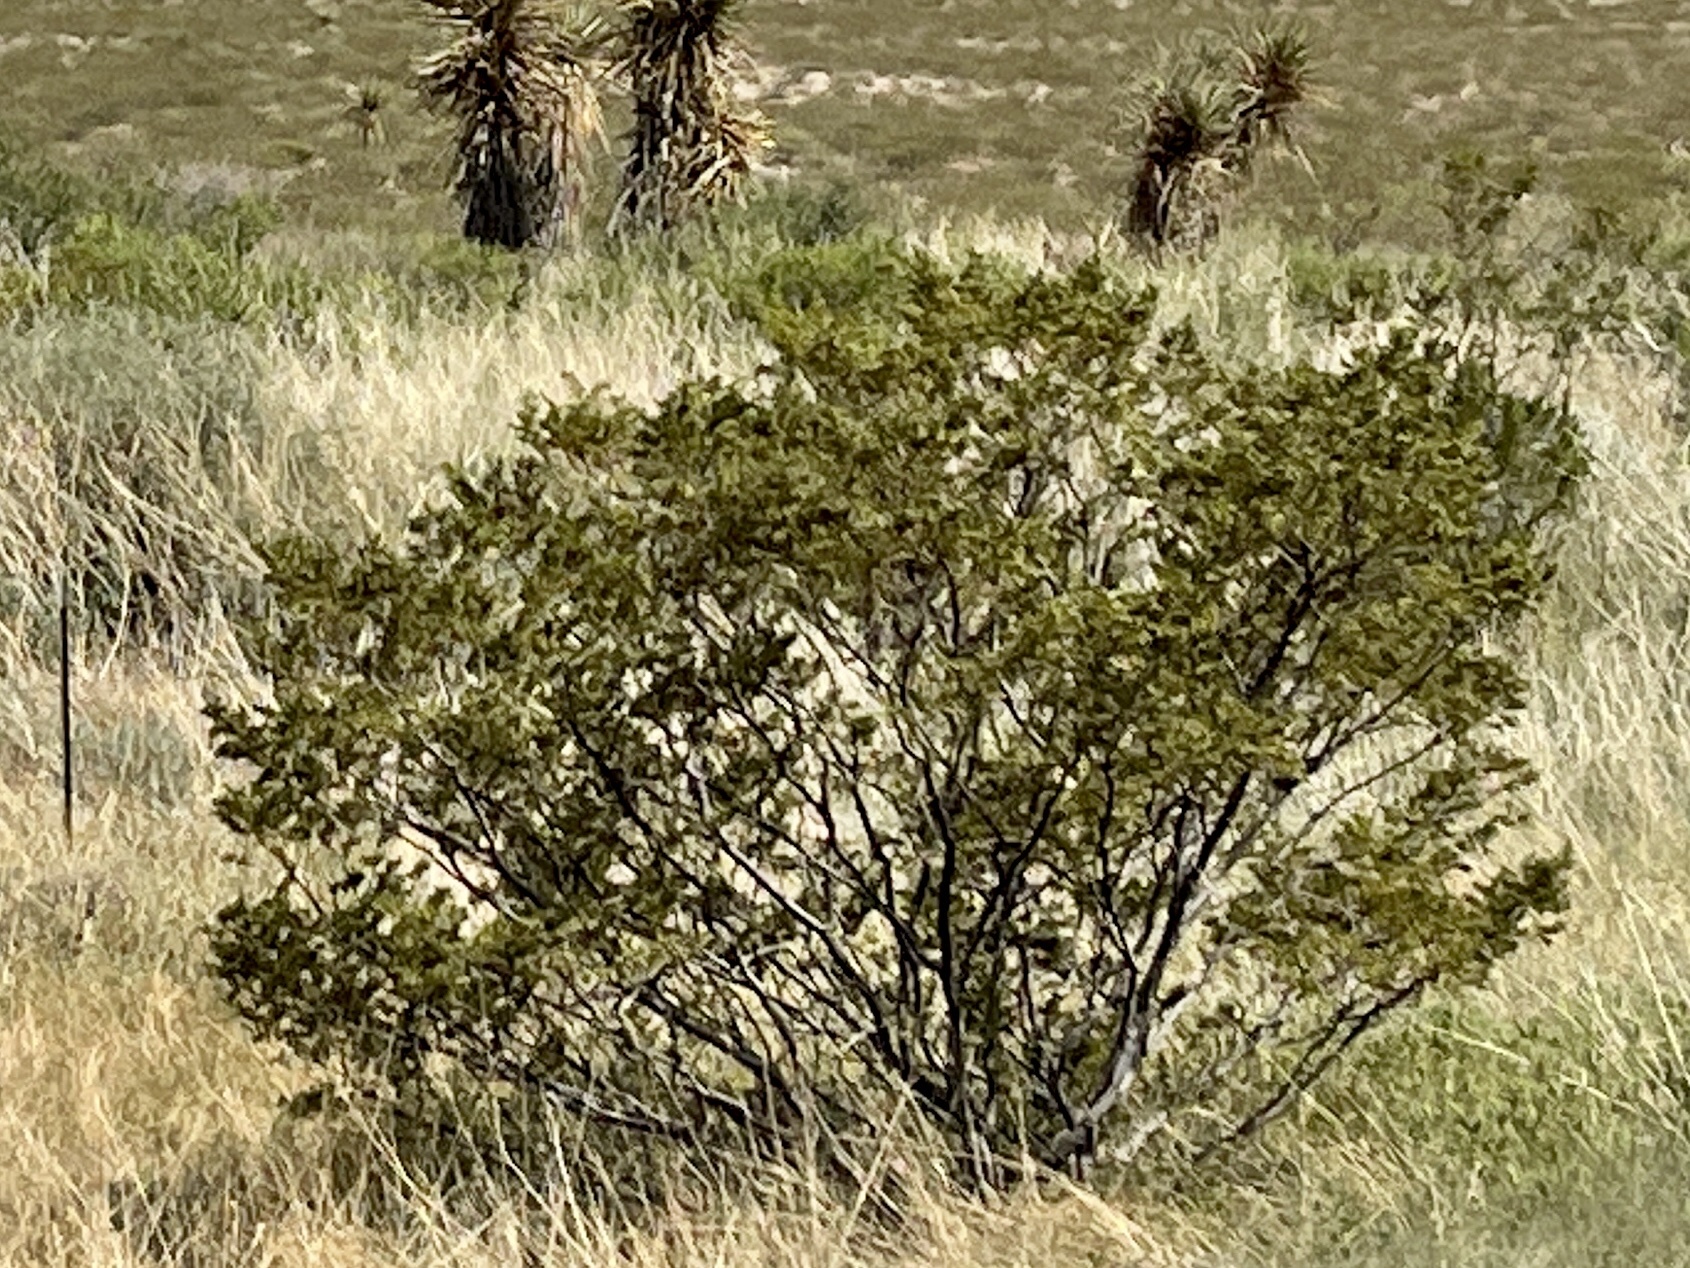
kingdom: Plantae
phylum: Tracheophyta
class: Magnoliopsida
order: Zygophyllales
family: Zygophyllaceae
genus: Larrea
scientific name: Larrea tridentata
